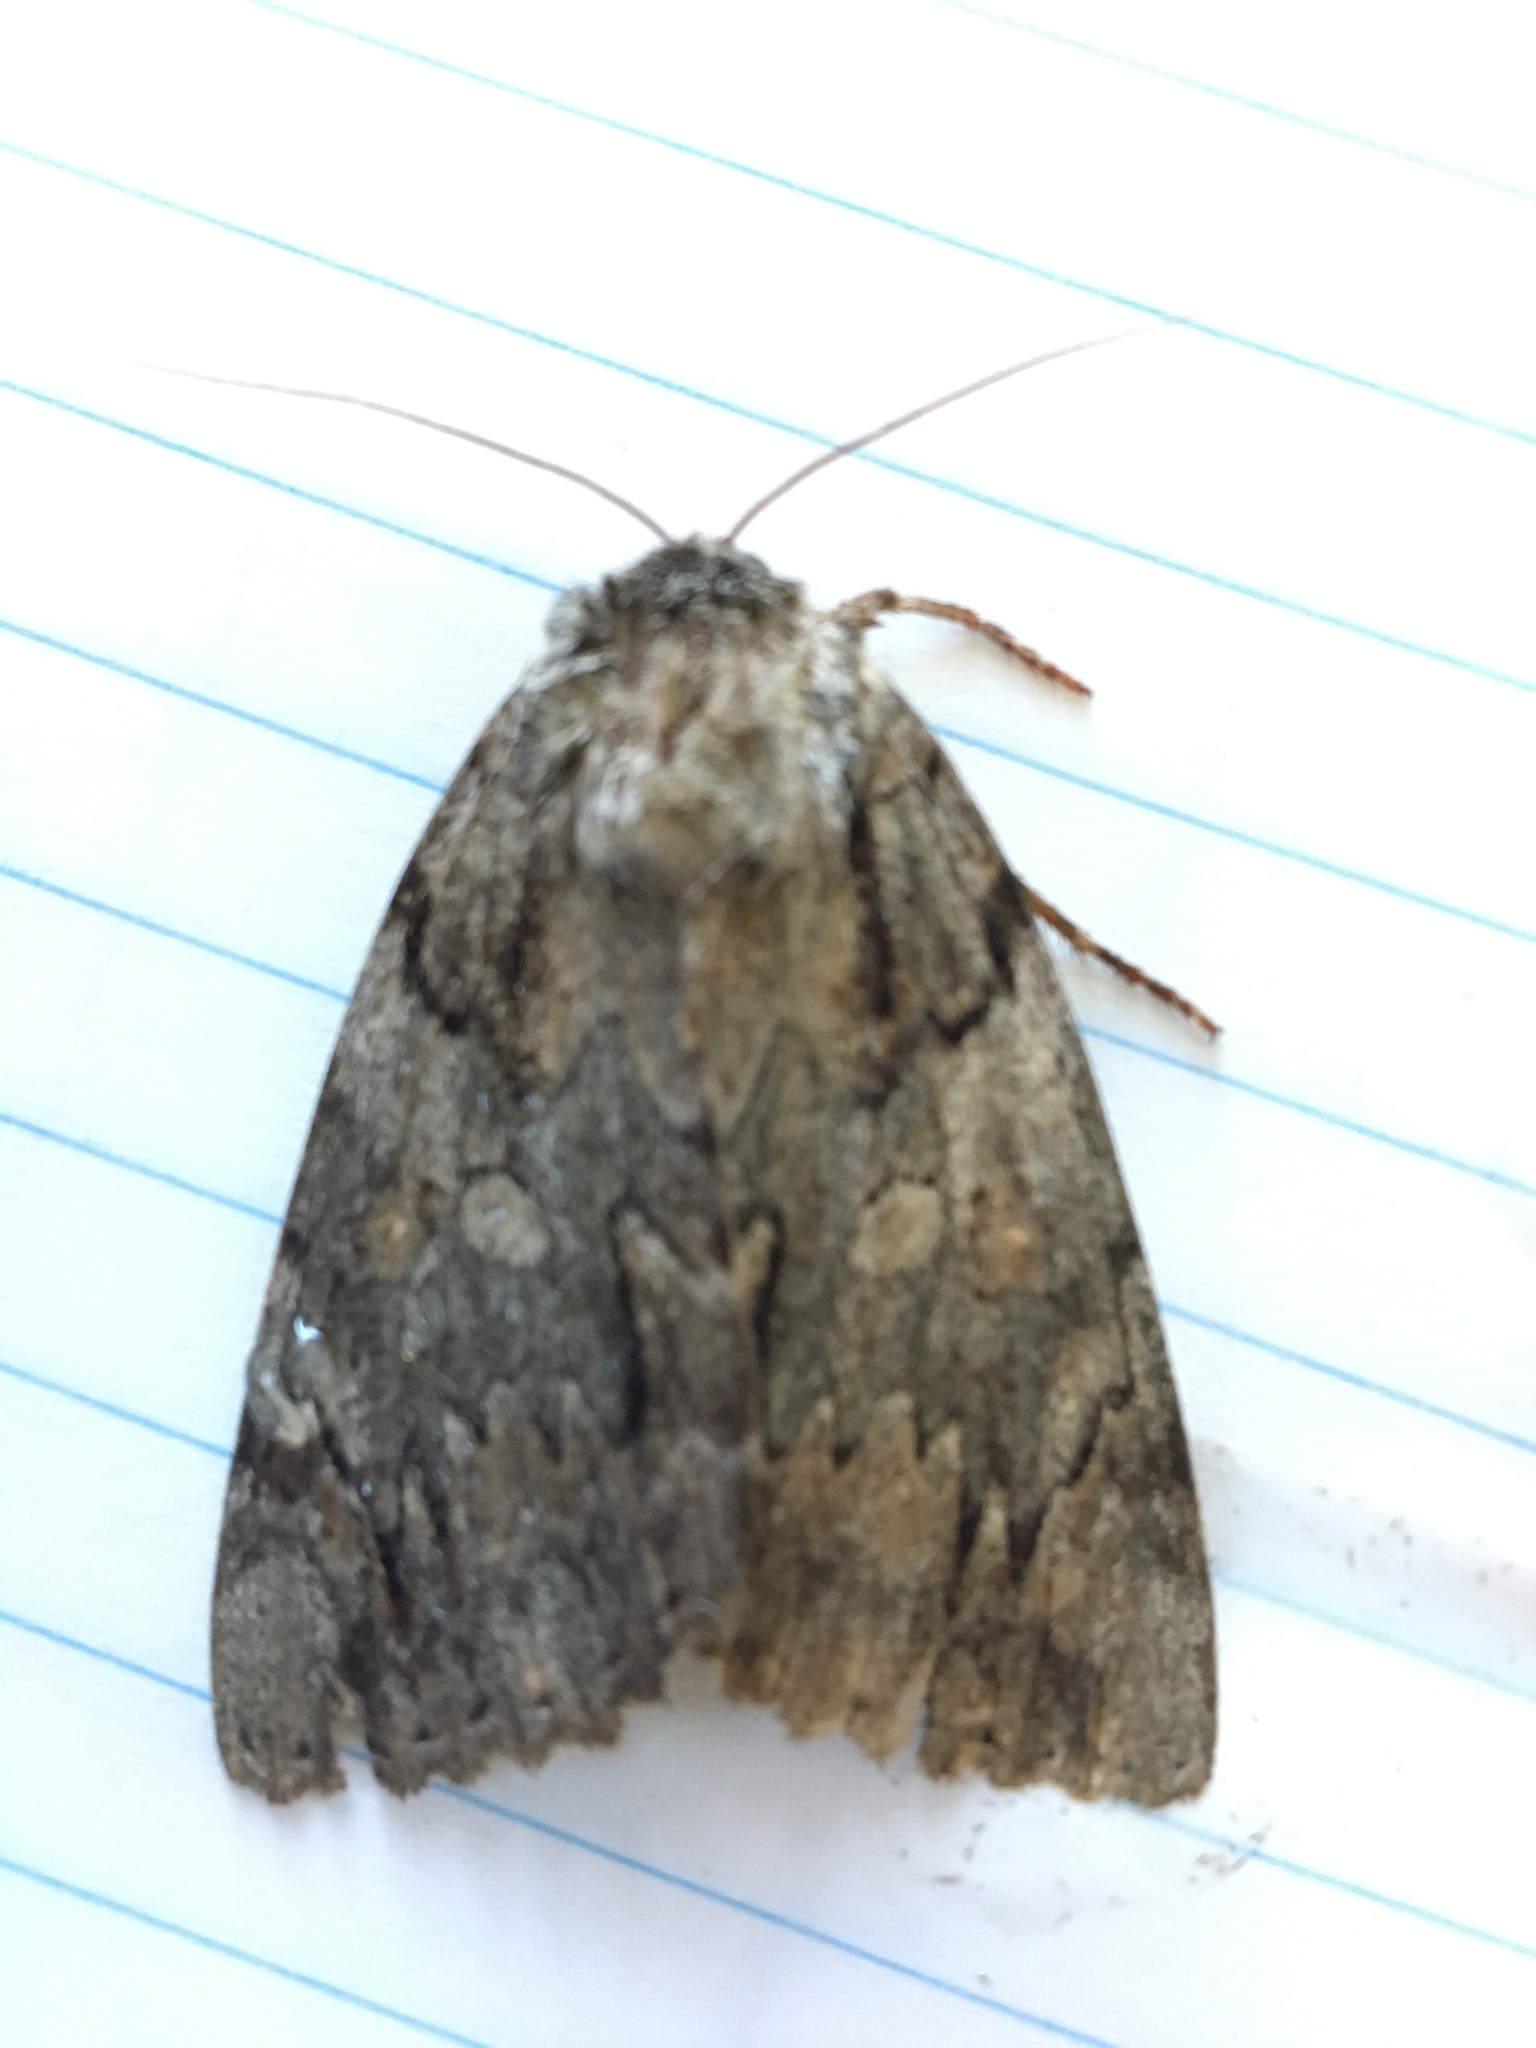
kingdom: Animalia
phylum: Arthropoda
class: Insecta
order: Lepidoptera
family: Erebidae
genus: Catocala
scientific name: Catocala neogama
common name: Bride underwing
